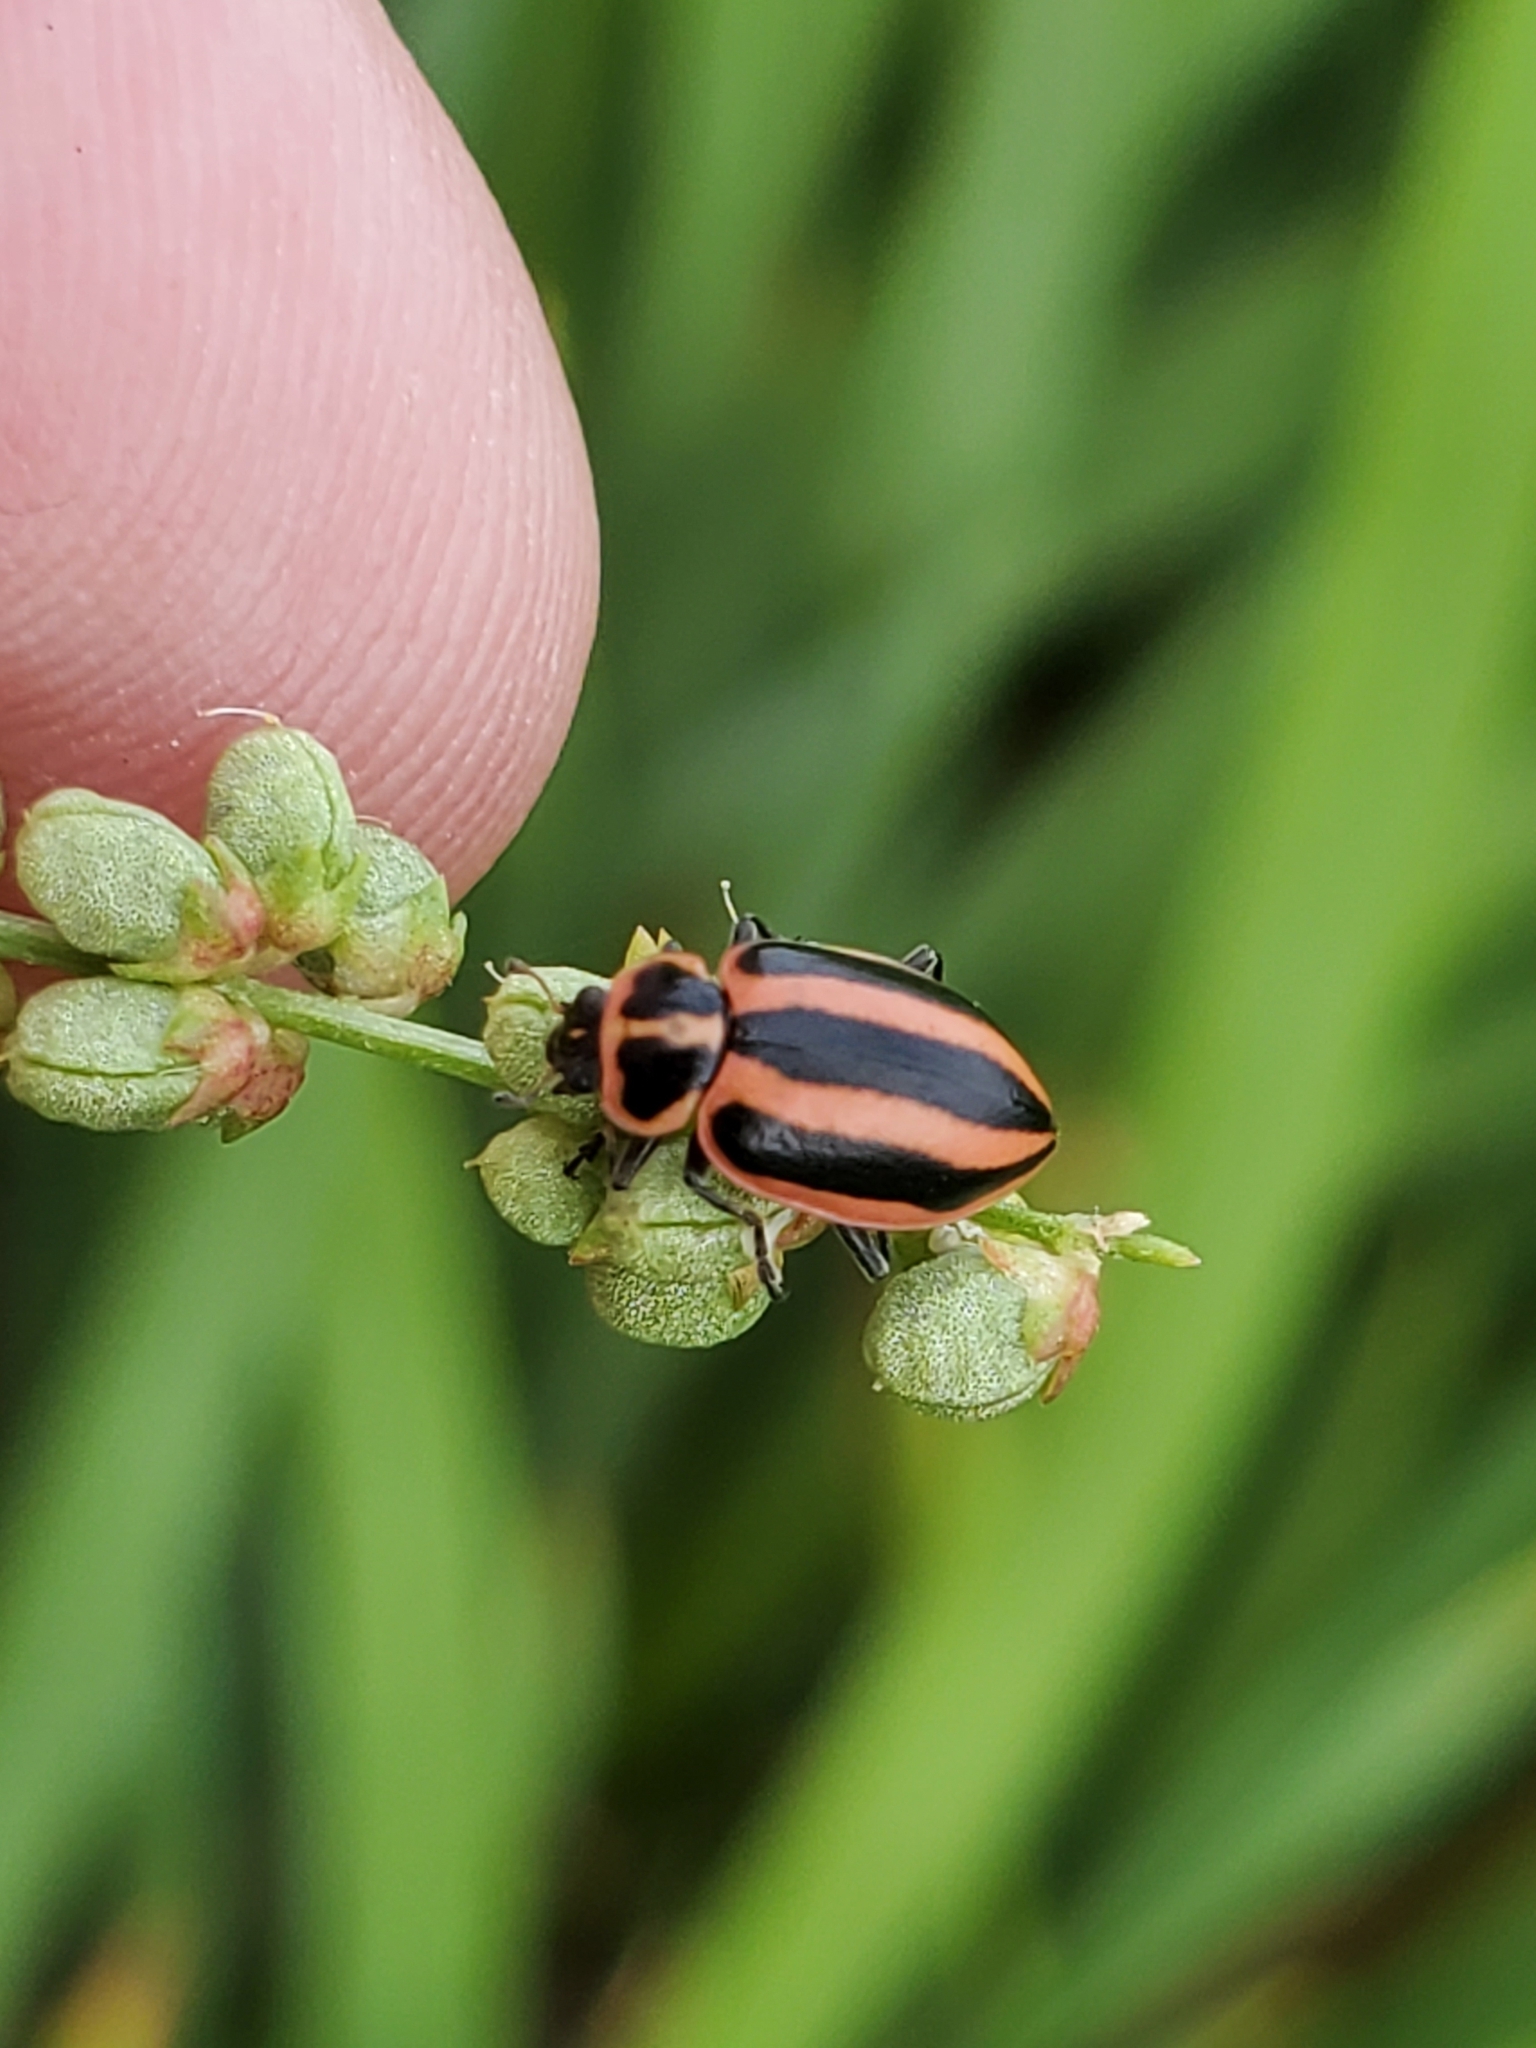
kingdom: Animalia
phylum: Arthropoda
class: Insecta
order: Coleoptera
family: Coccinellidae
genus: Paranaemia
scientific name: Paranaemia vittigera
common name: Ladybird beetle
